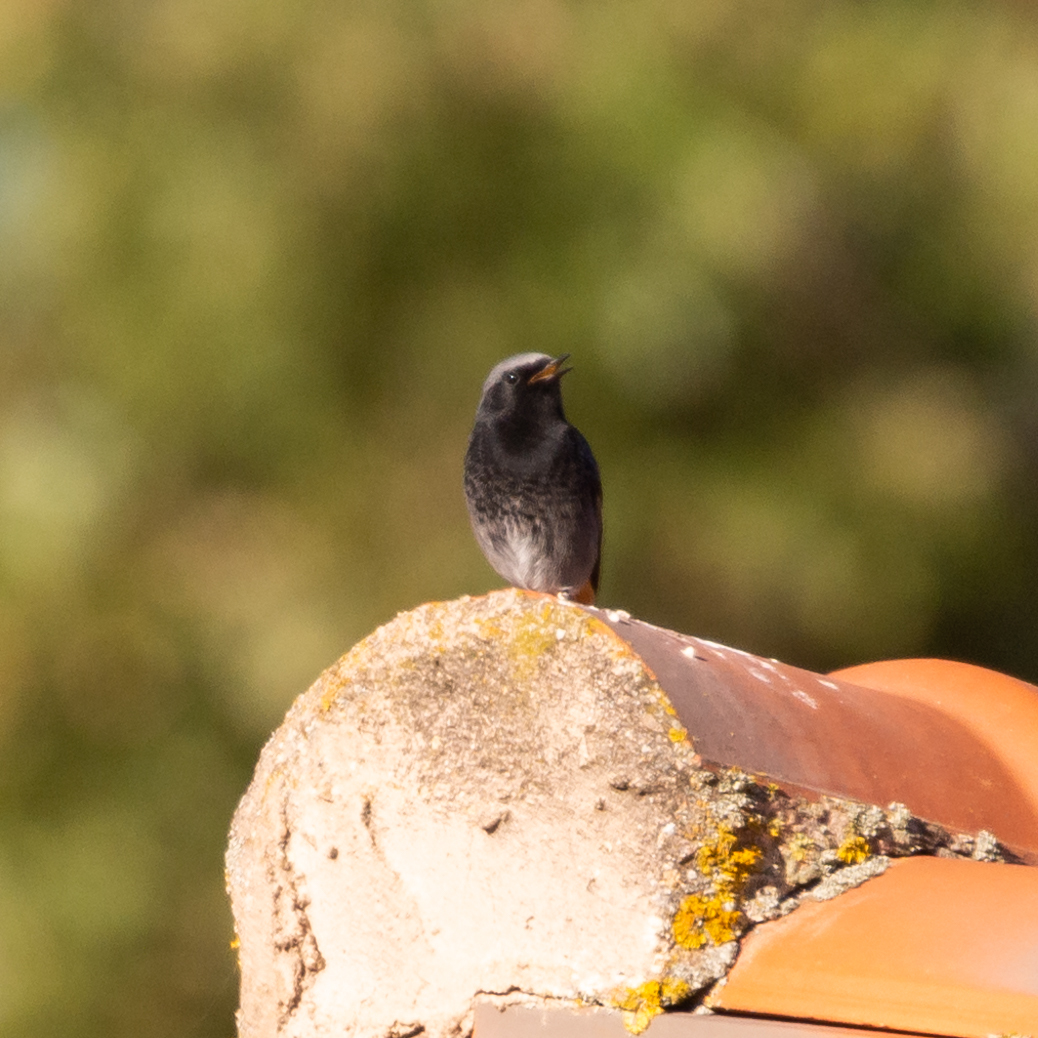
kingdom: Animalia
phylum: Chordata
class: Aves
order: Passeriformes
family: Muscicapidae
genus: Phoenicurus
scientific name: Phoenicurus ochruros
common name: Black redstart
